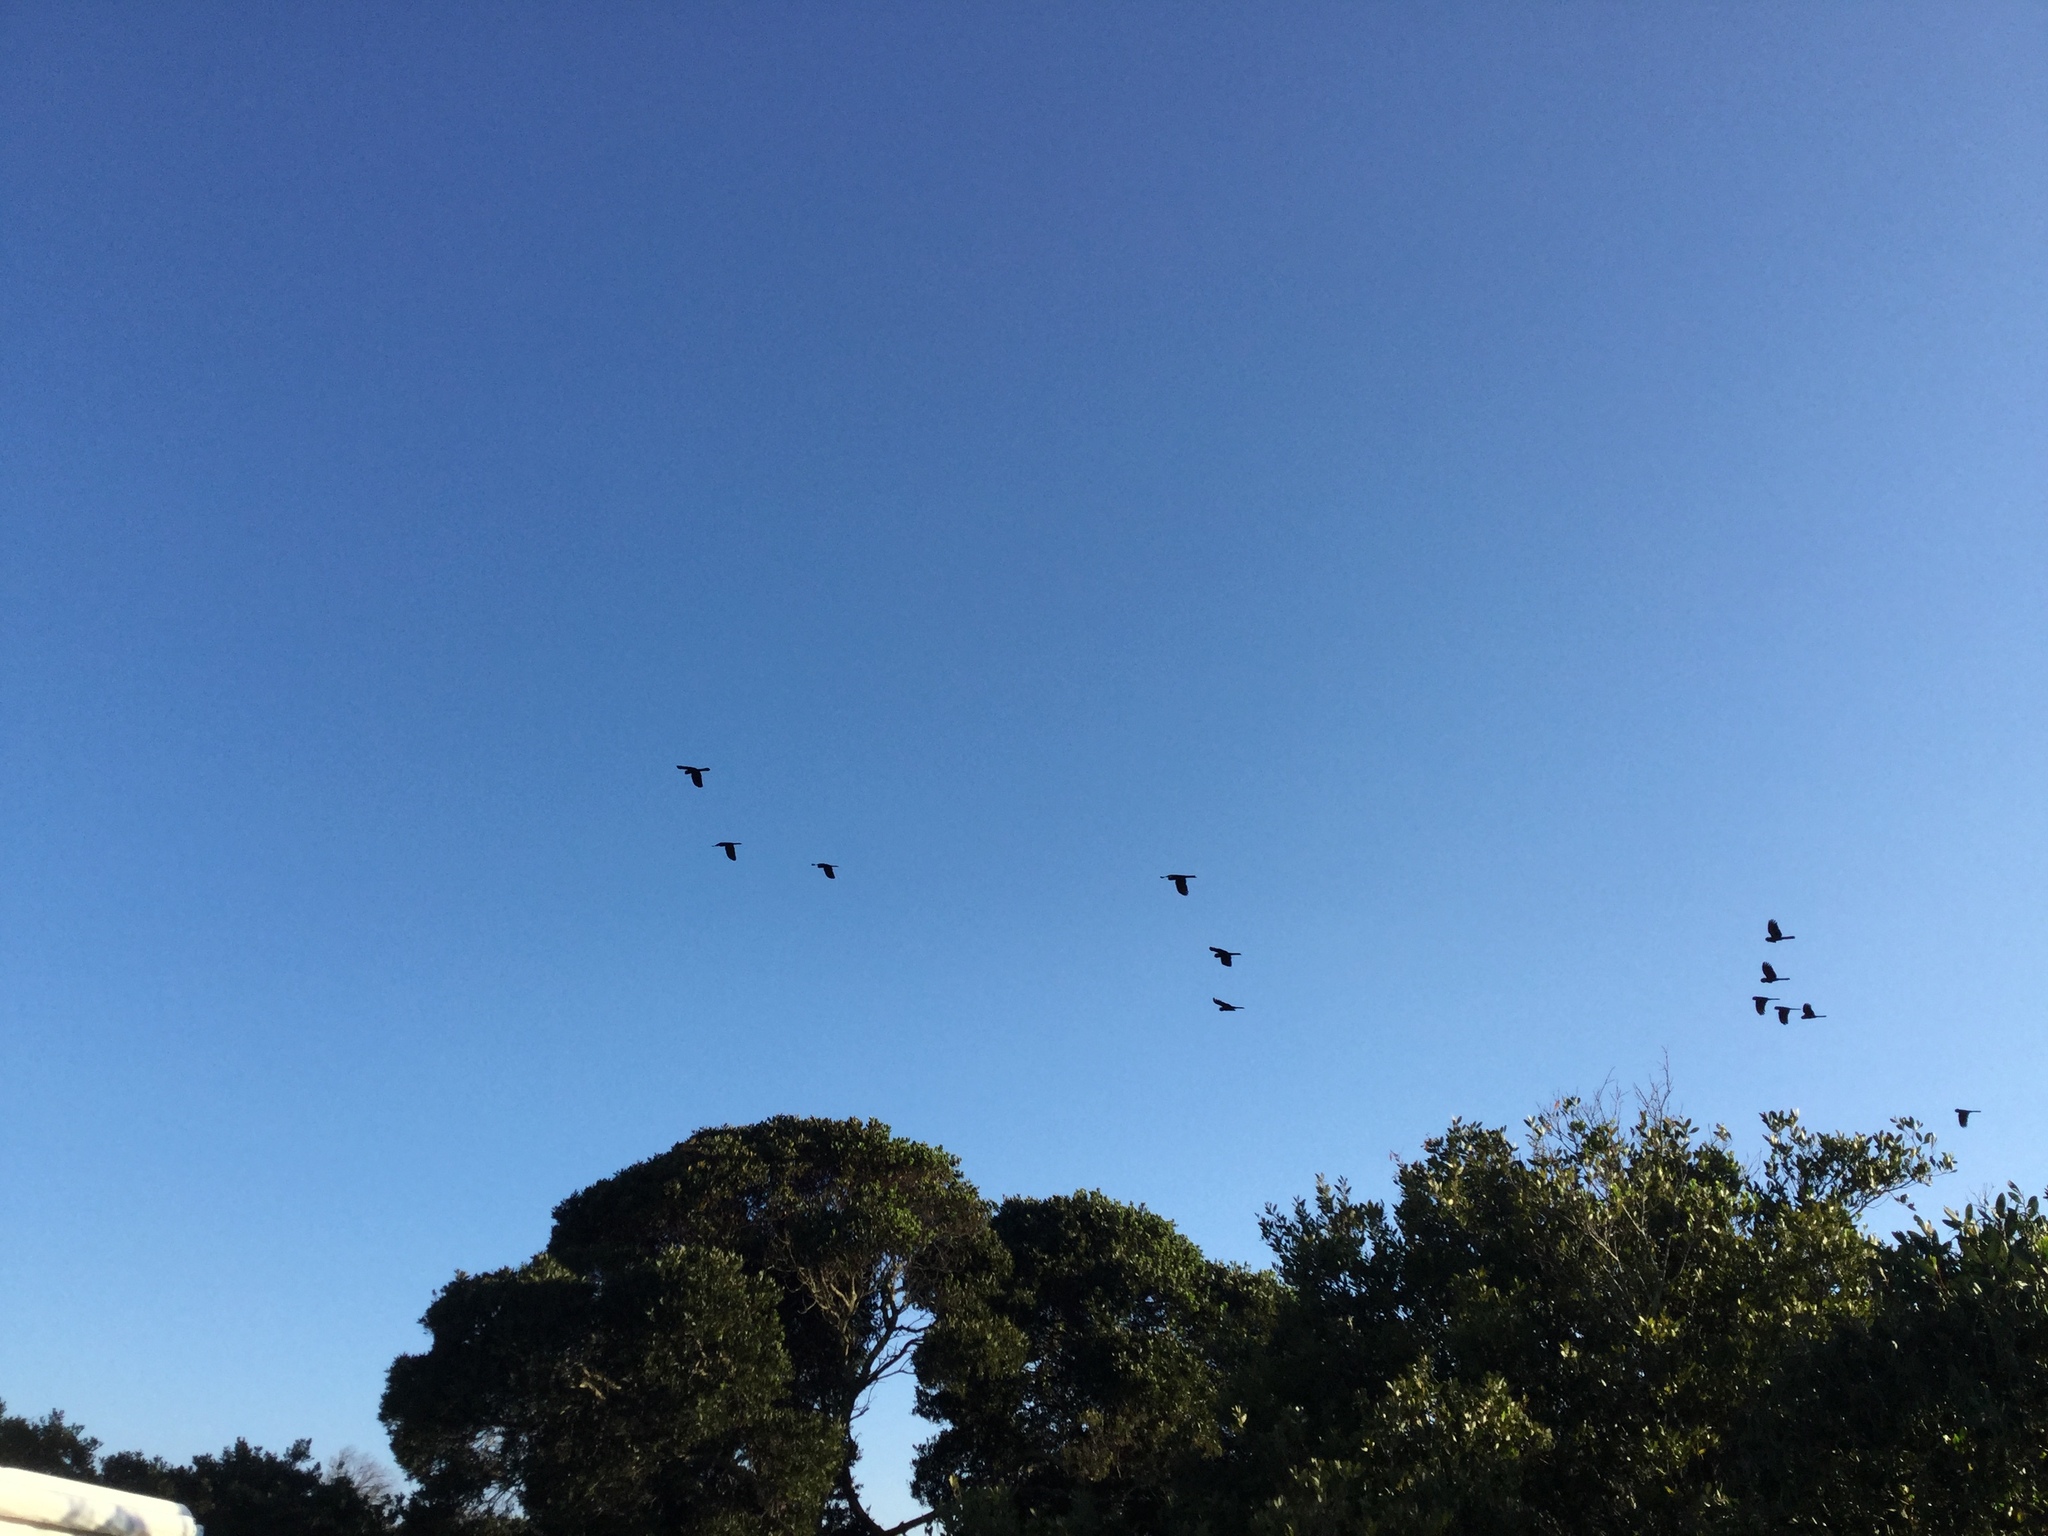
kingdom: Animalia
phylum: Chordata
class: Aves
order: Psittaciformes
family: Cacatuidae
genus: Zanda
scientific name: Zanda funerea
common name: Yellow-tailed black-cockatoo
